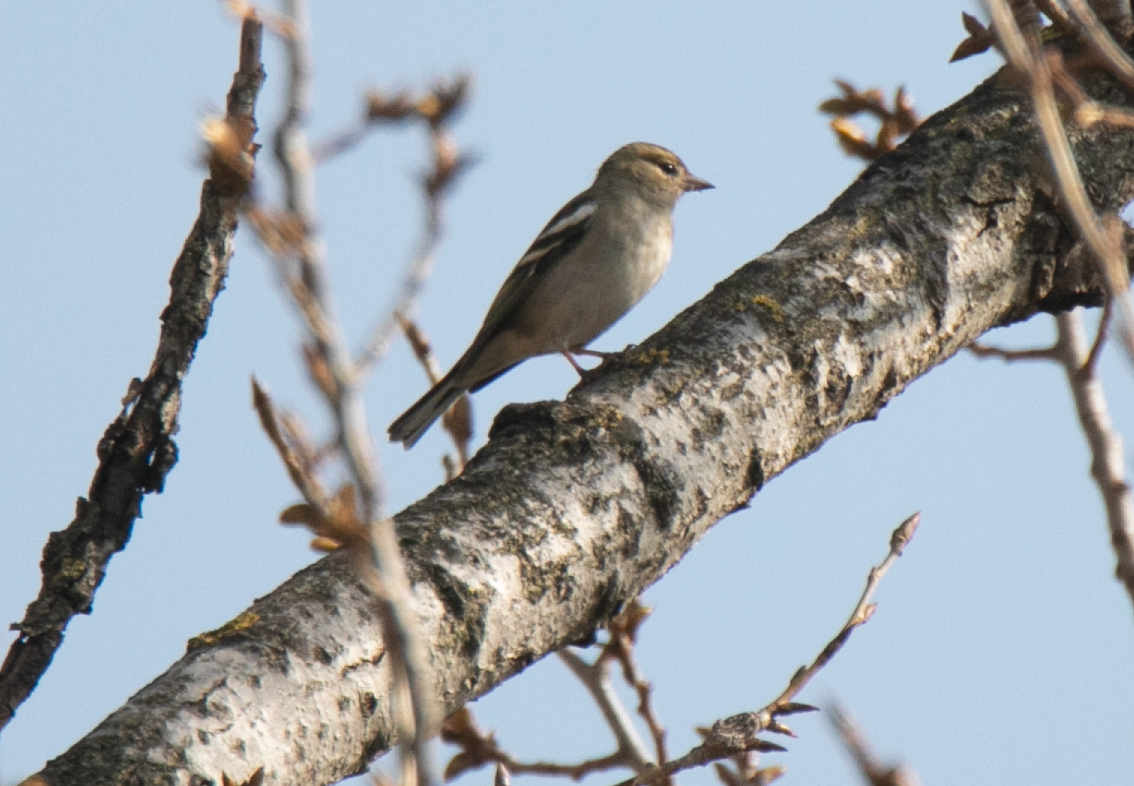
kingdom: Animalia
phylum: Chordata
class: Aves
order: Passeriformes
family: Fringillidae
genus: Fringilla
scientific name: Fringilla coelebs
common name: Common chaffinch
